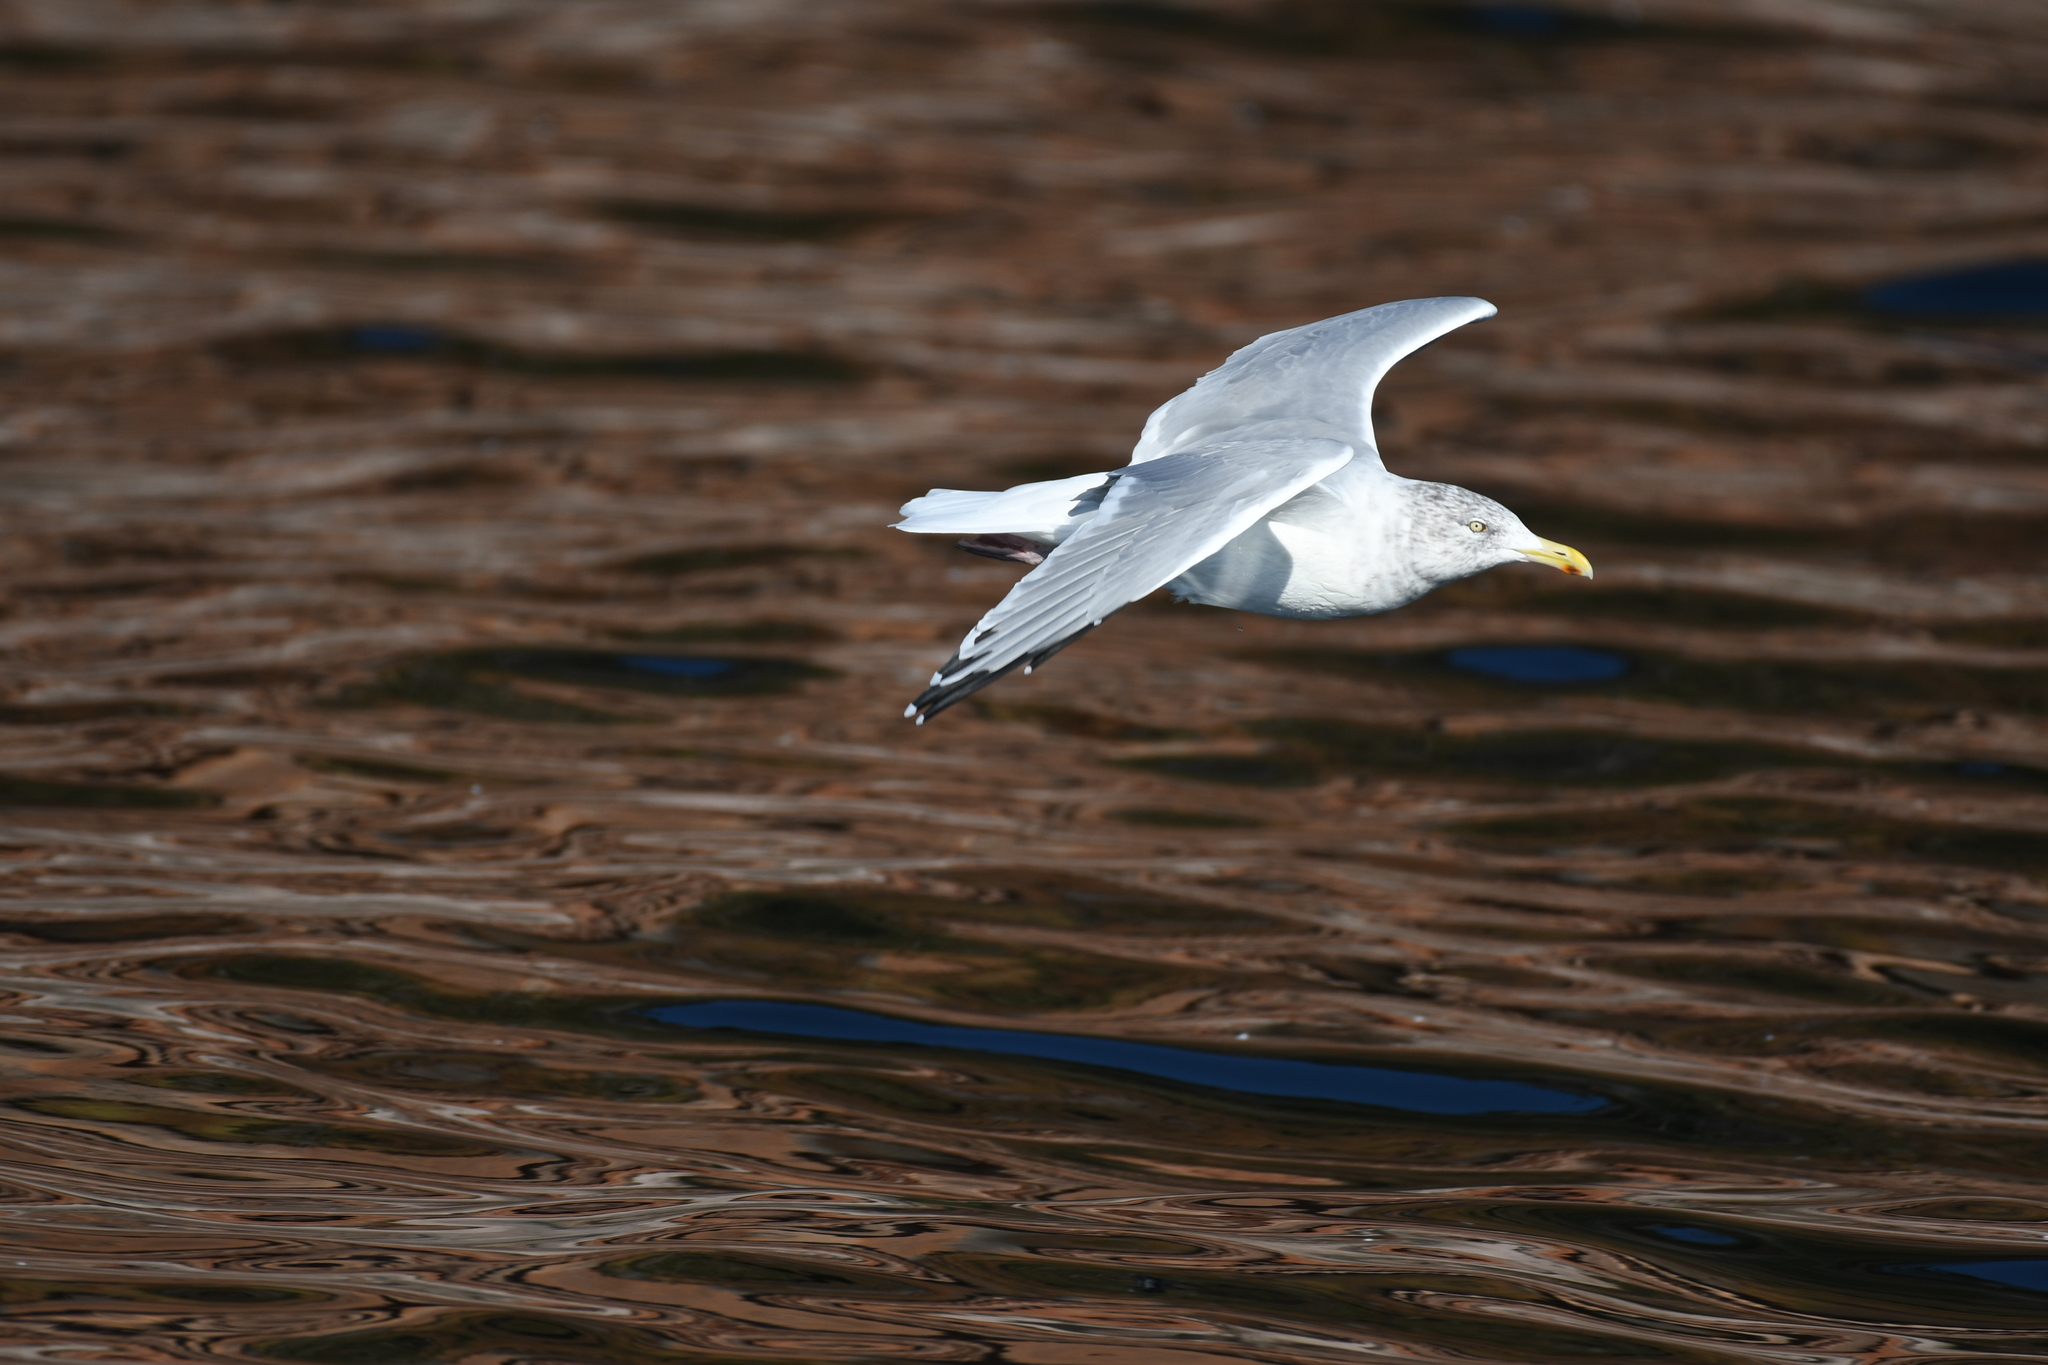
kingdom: Animalia
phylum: Chordata
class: Aves
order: Charadriiformes
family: Laridae
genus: Larus
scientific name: Larus argentatus
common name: Herring gull
